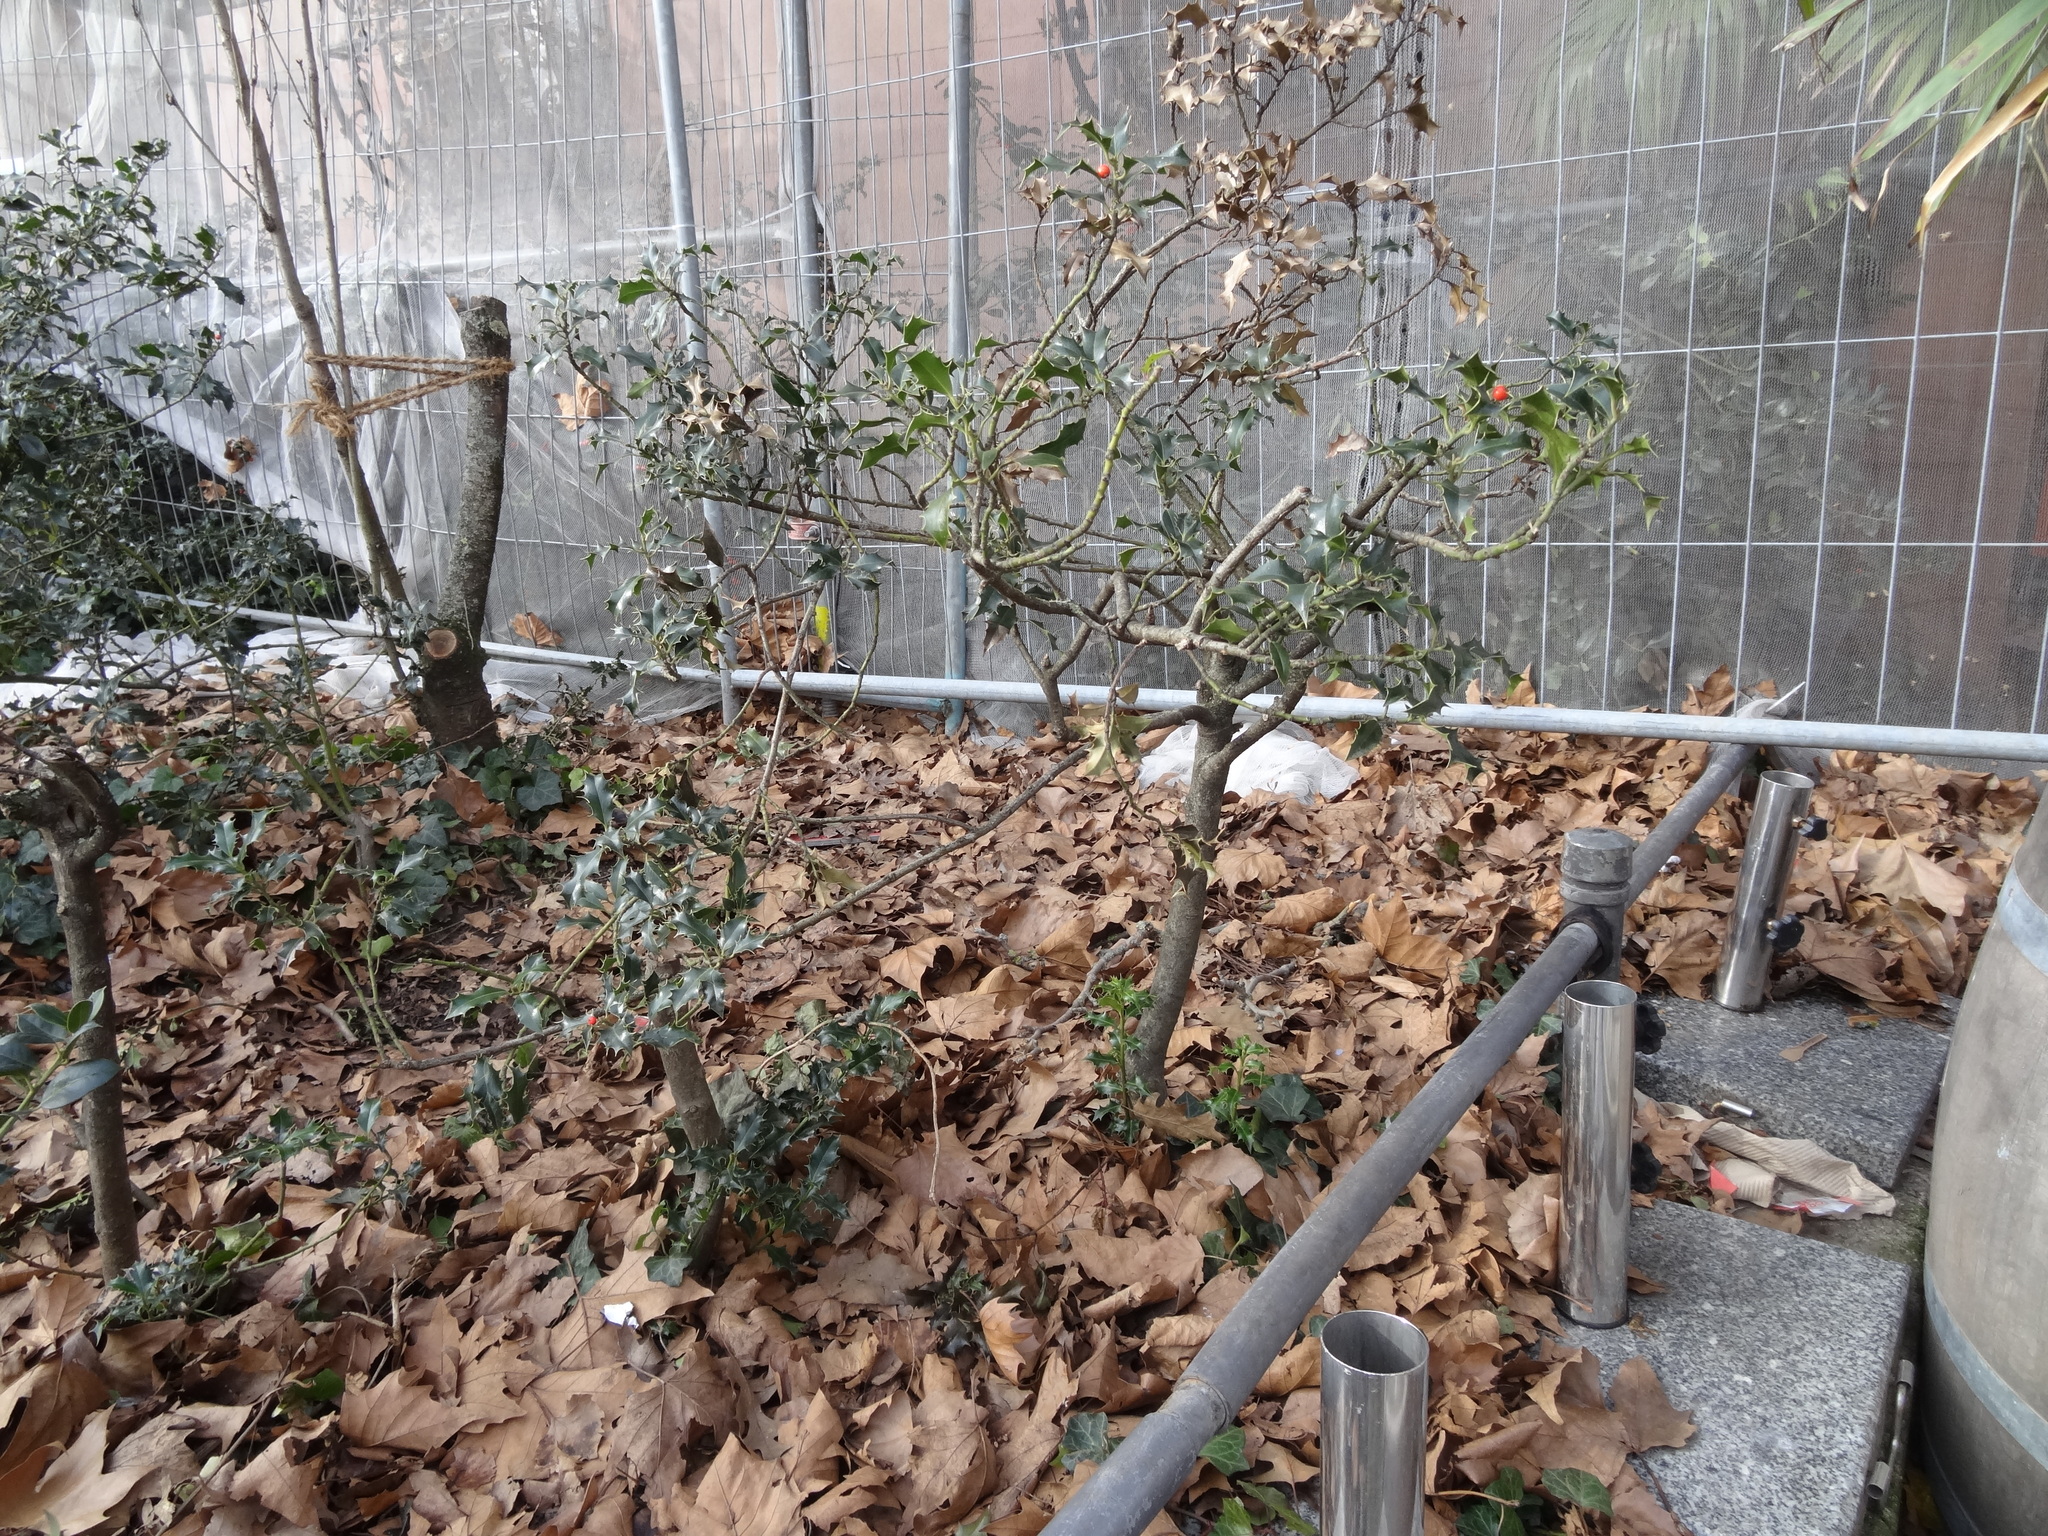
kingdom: Plantae
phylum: Tracheophyta
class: Magnoliopsida
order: Aquifoliales
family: Aquifoliaceae
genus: Ilex
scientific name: Ilex aquifolium
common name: English holly
